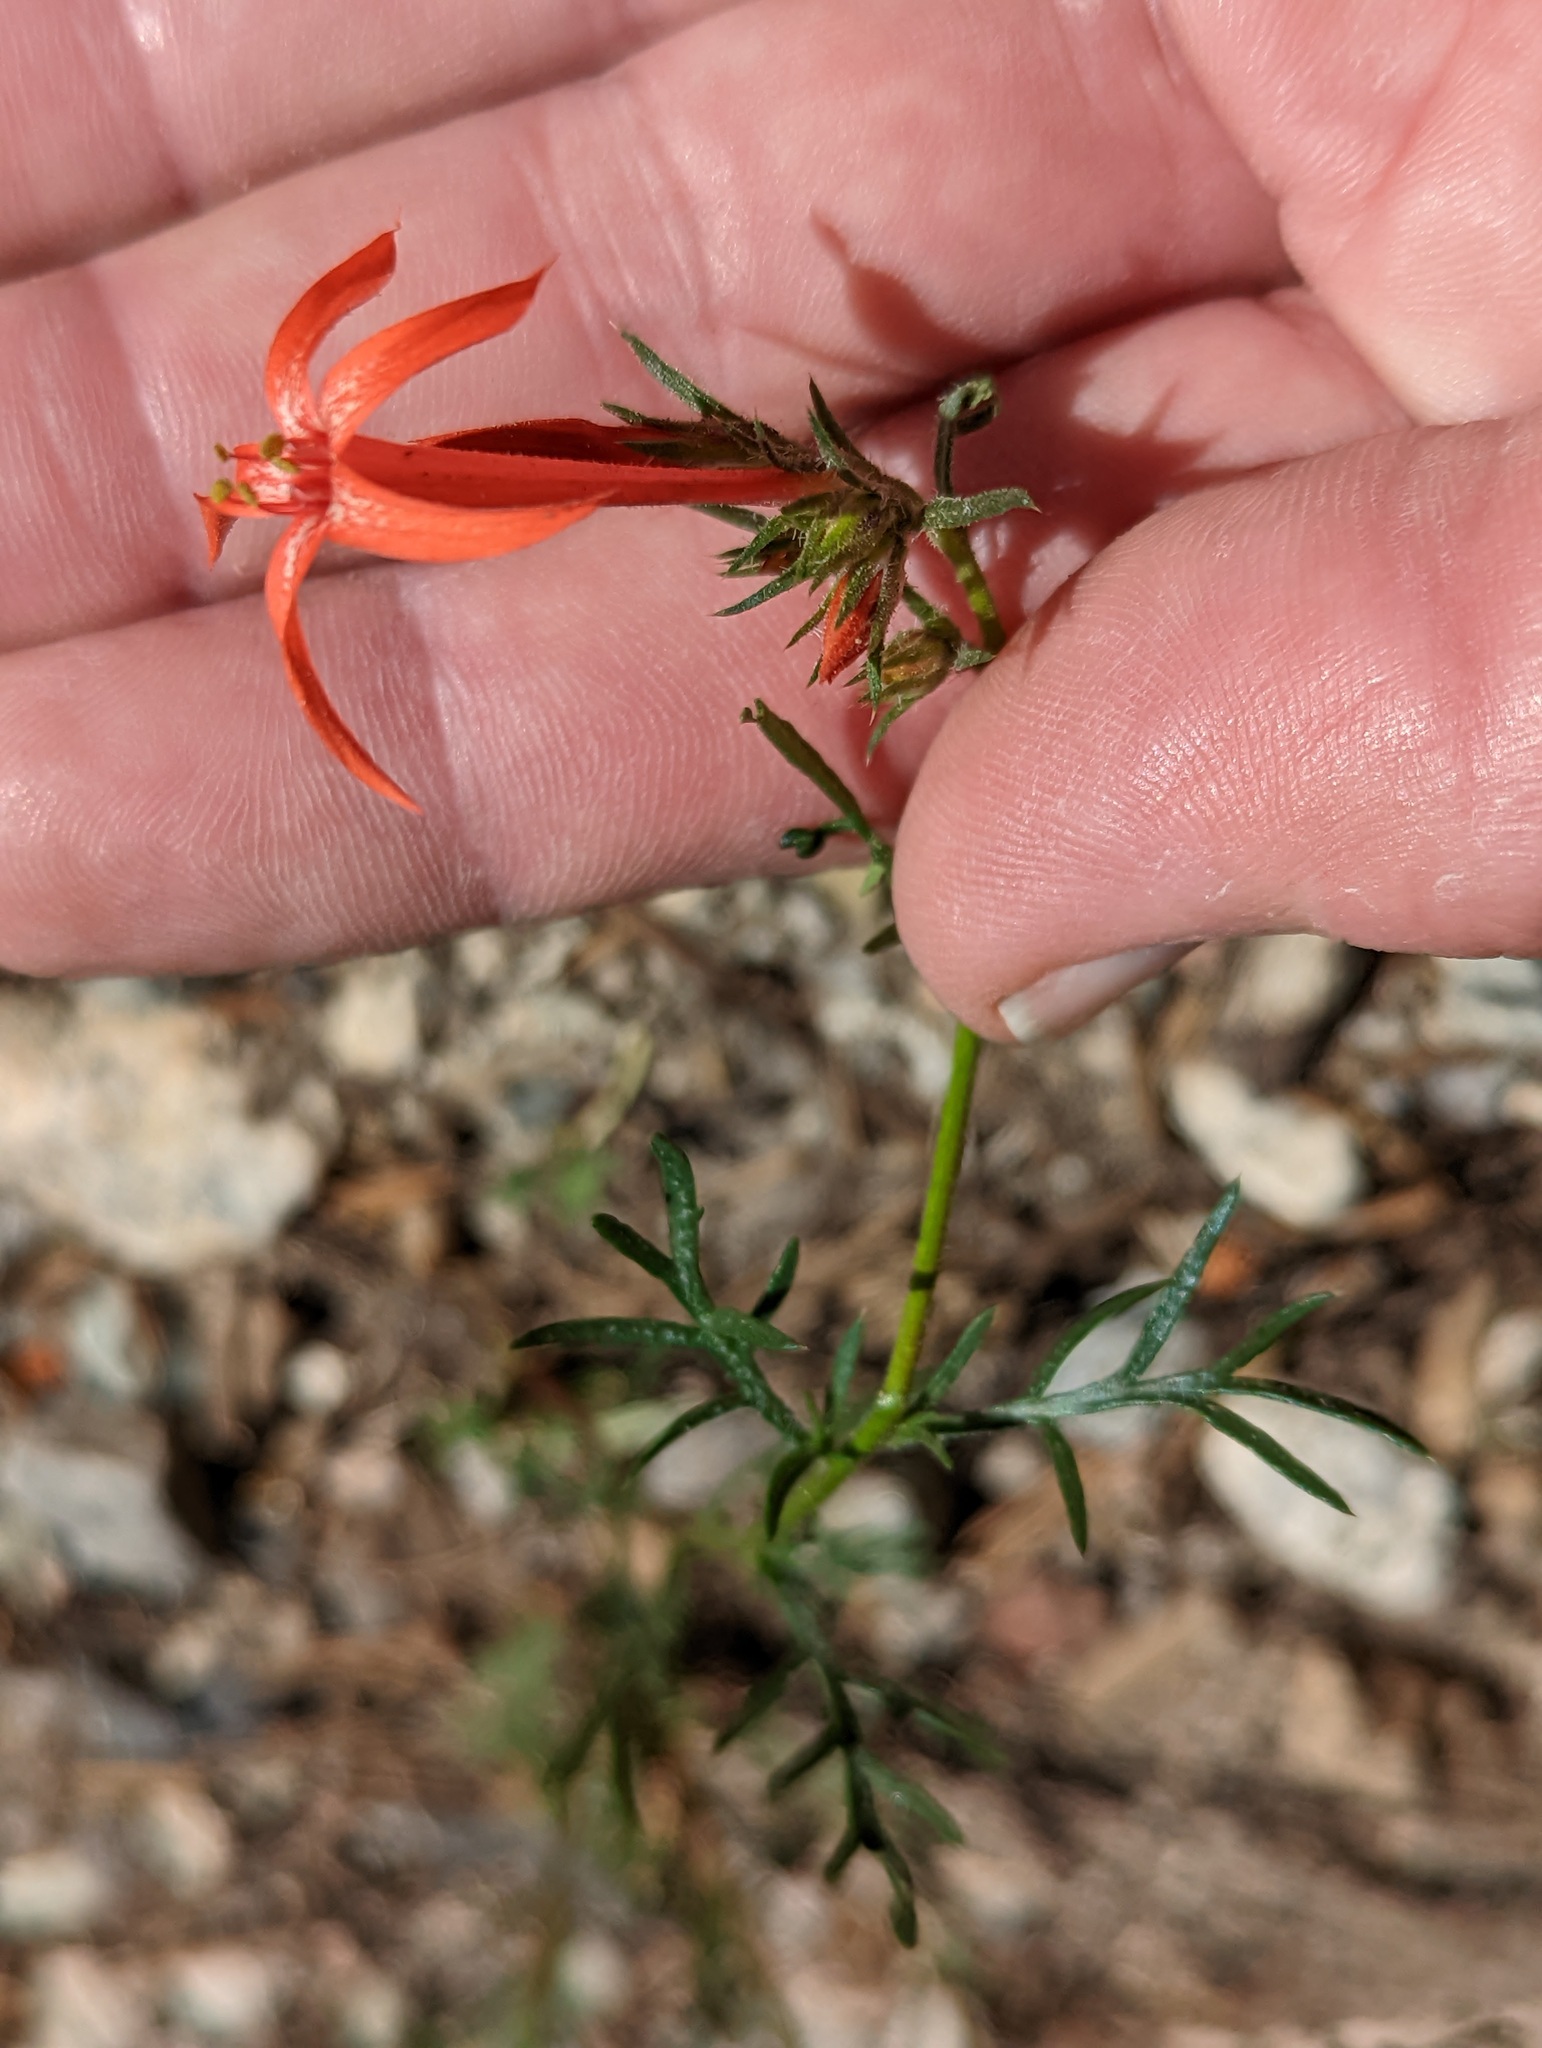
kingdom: Plantae
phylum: Tracheophyta
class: Magnoliopsida
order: Ericales
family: Polemoniaceae
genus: Ipomopsis
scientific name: Ipomopsis aggregata
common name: Scarlet gilia
